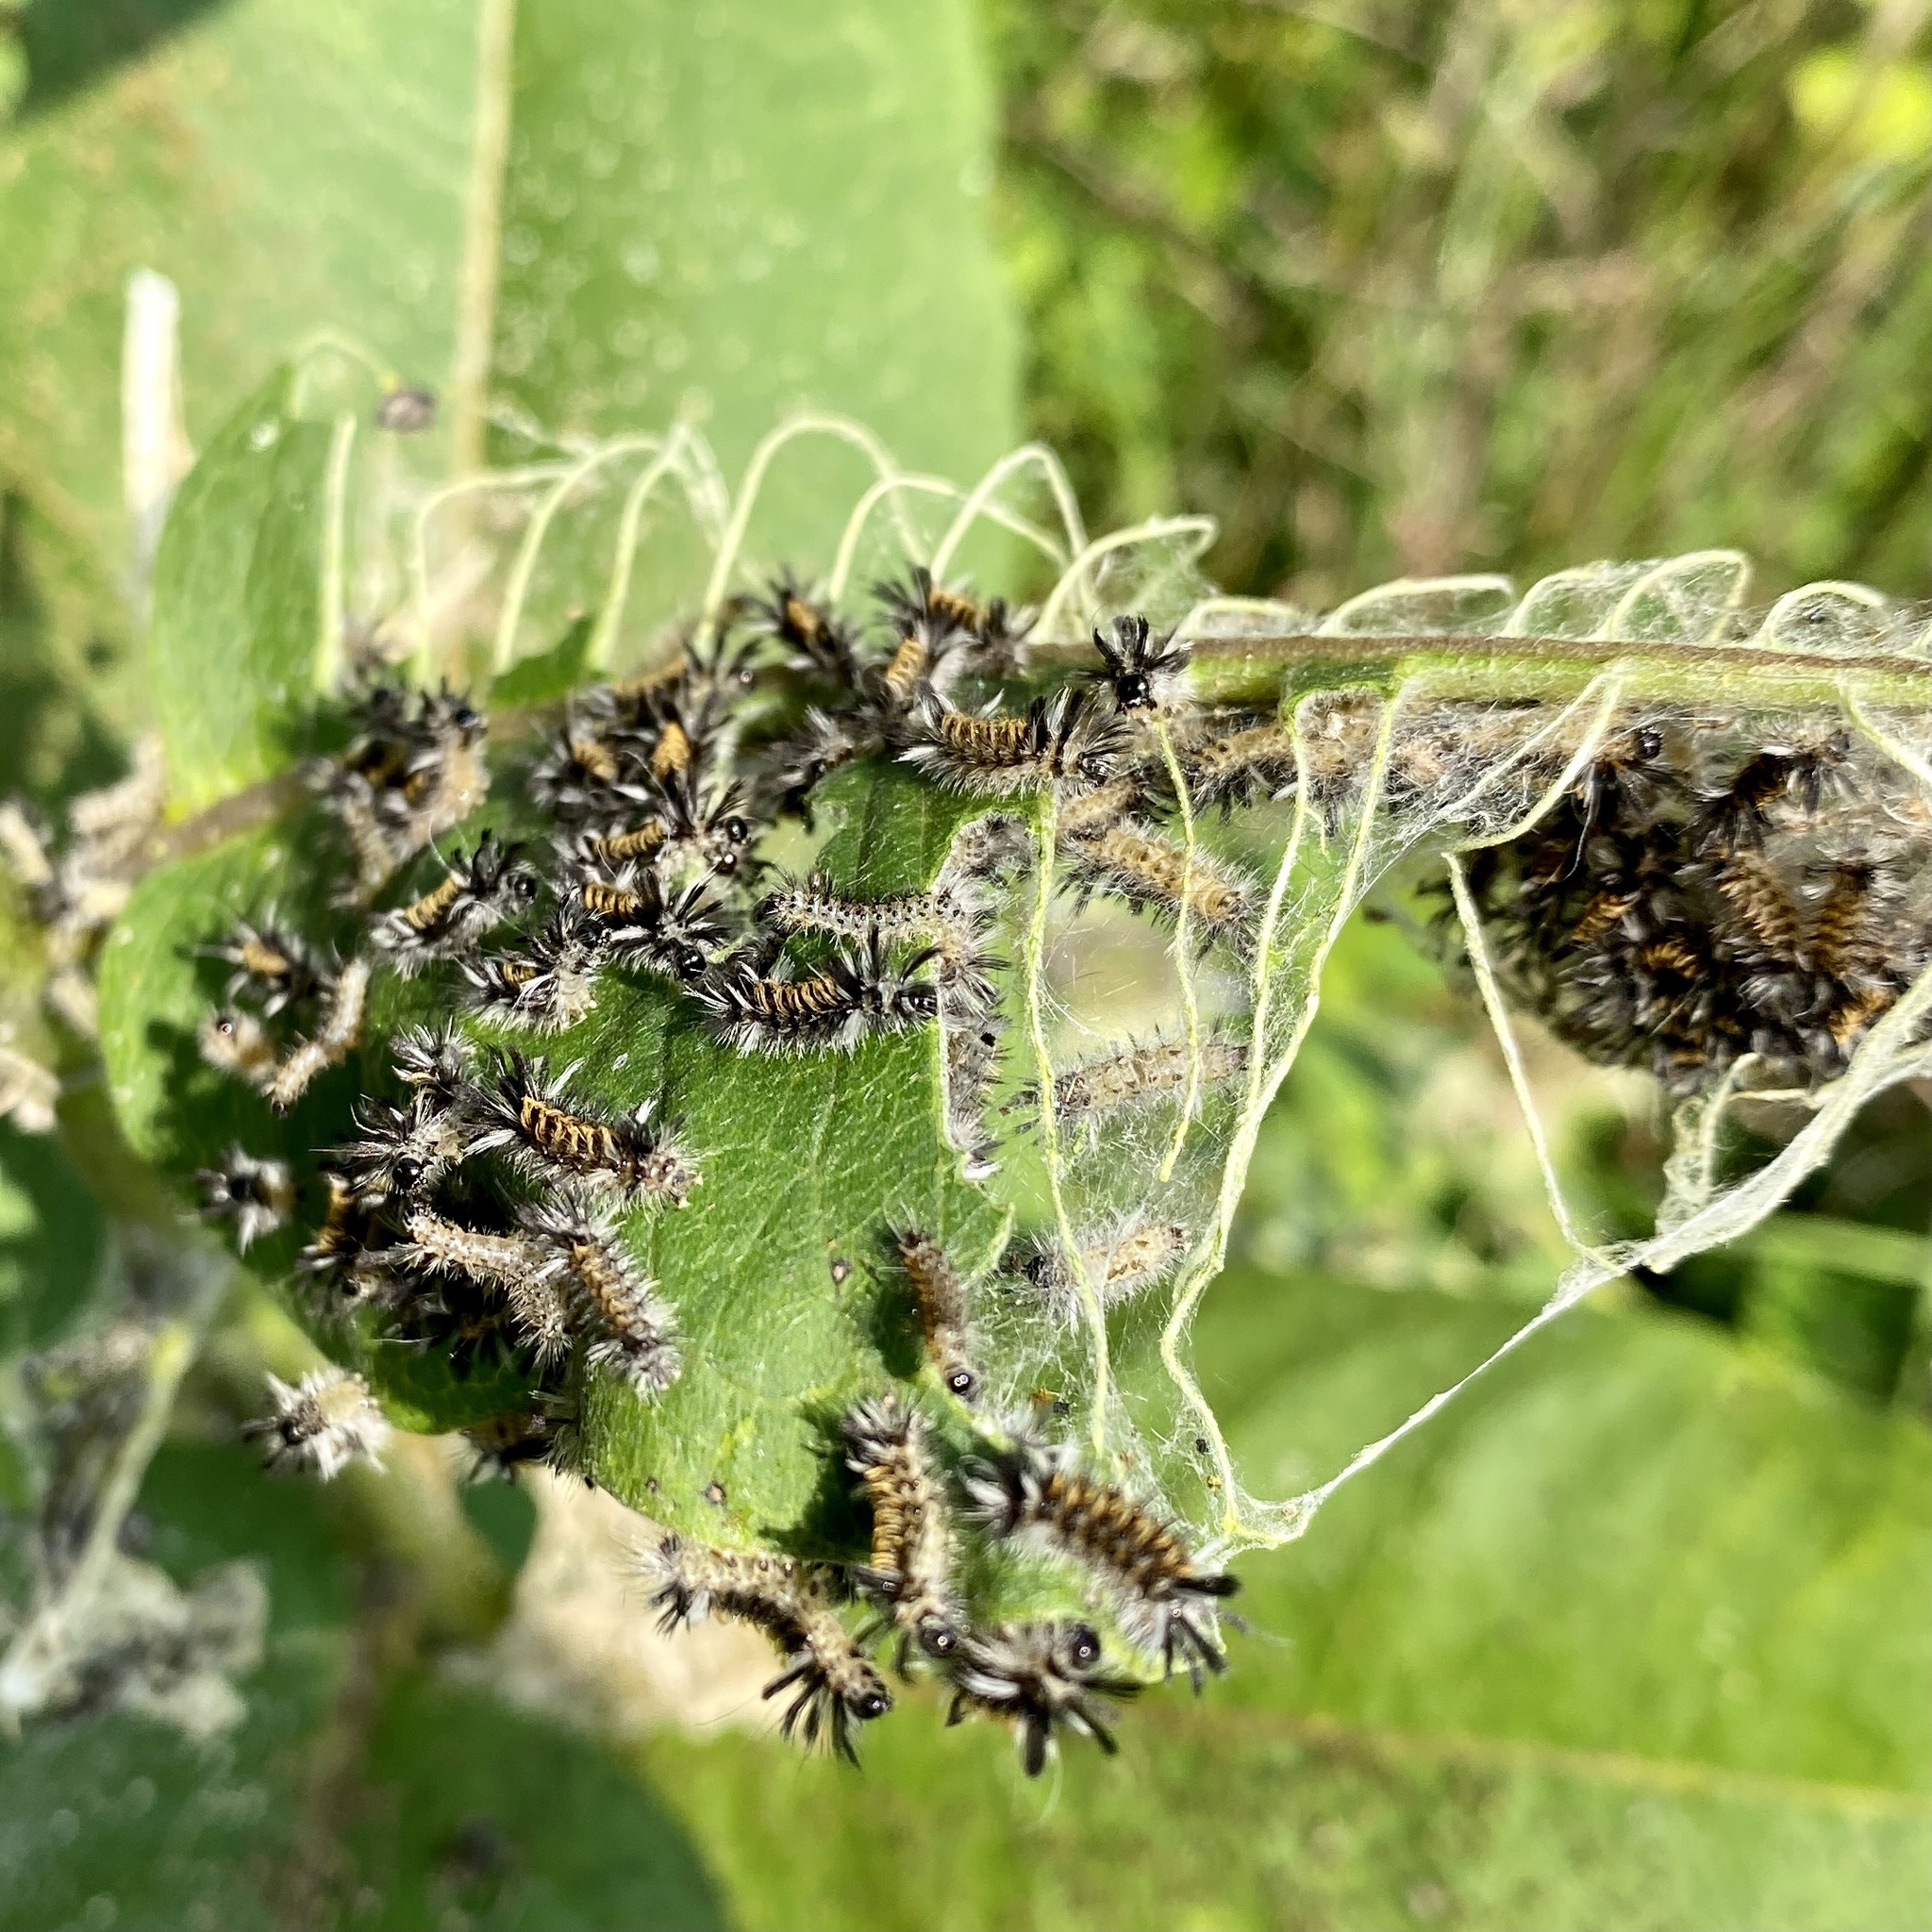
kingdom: Animalia
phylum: Arthropoda
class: Insecta
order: Lepidoptera
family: Erebidae
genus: Euchaetes
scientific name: Euchaetes egle
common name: Milkweed tussock moth
